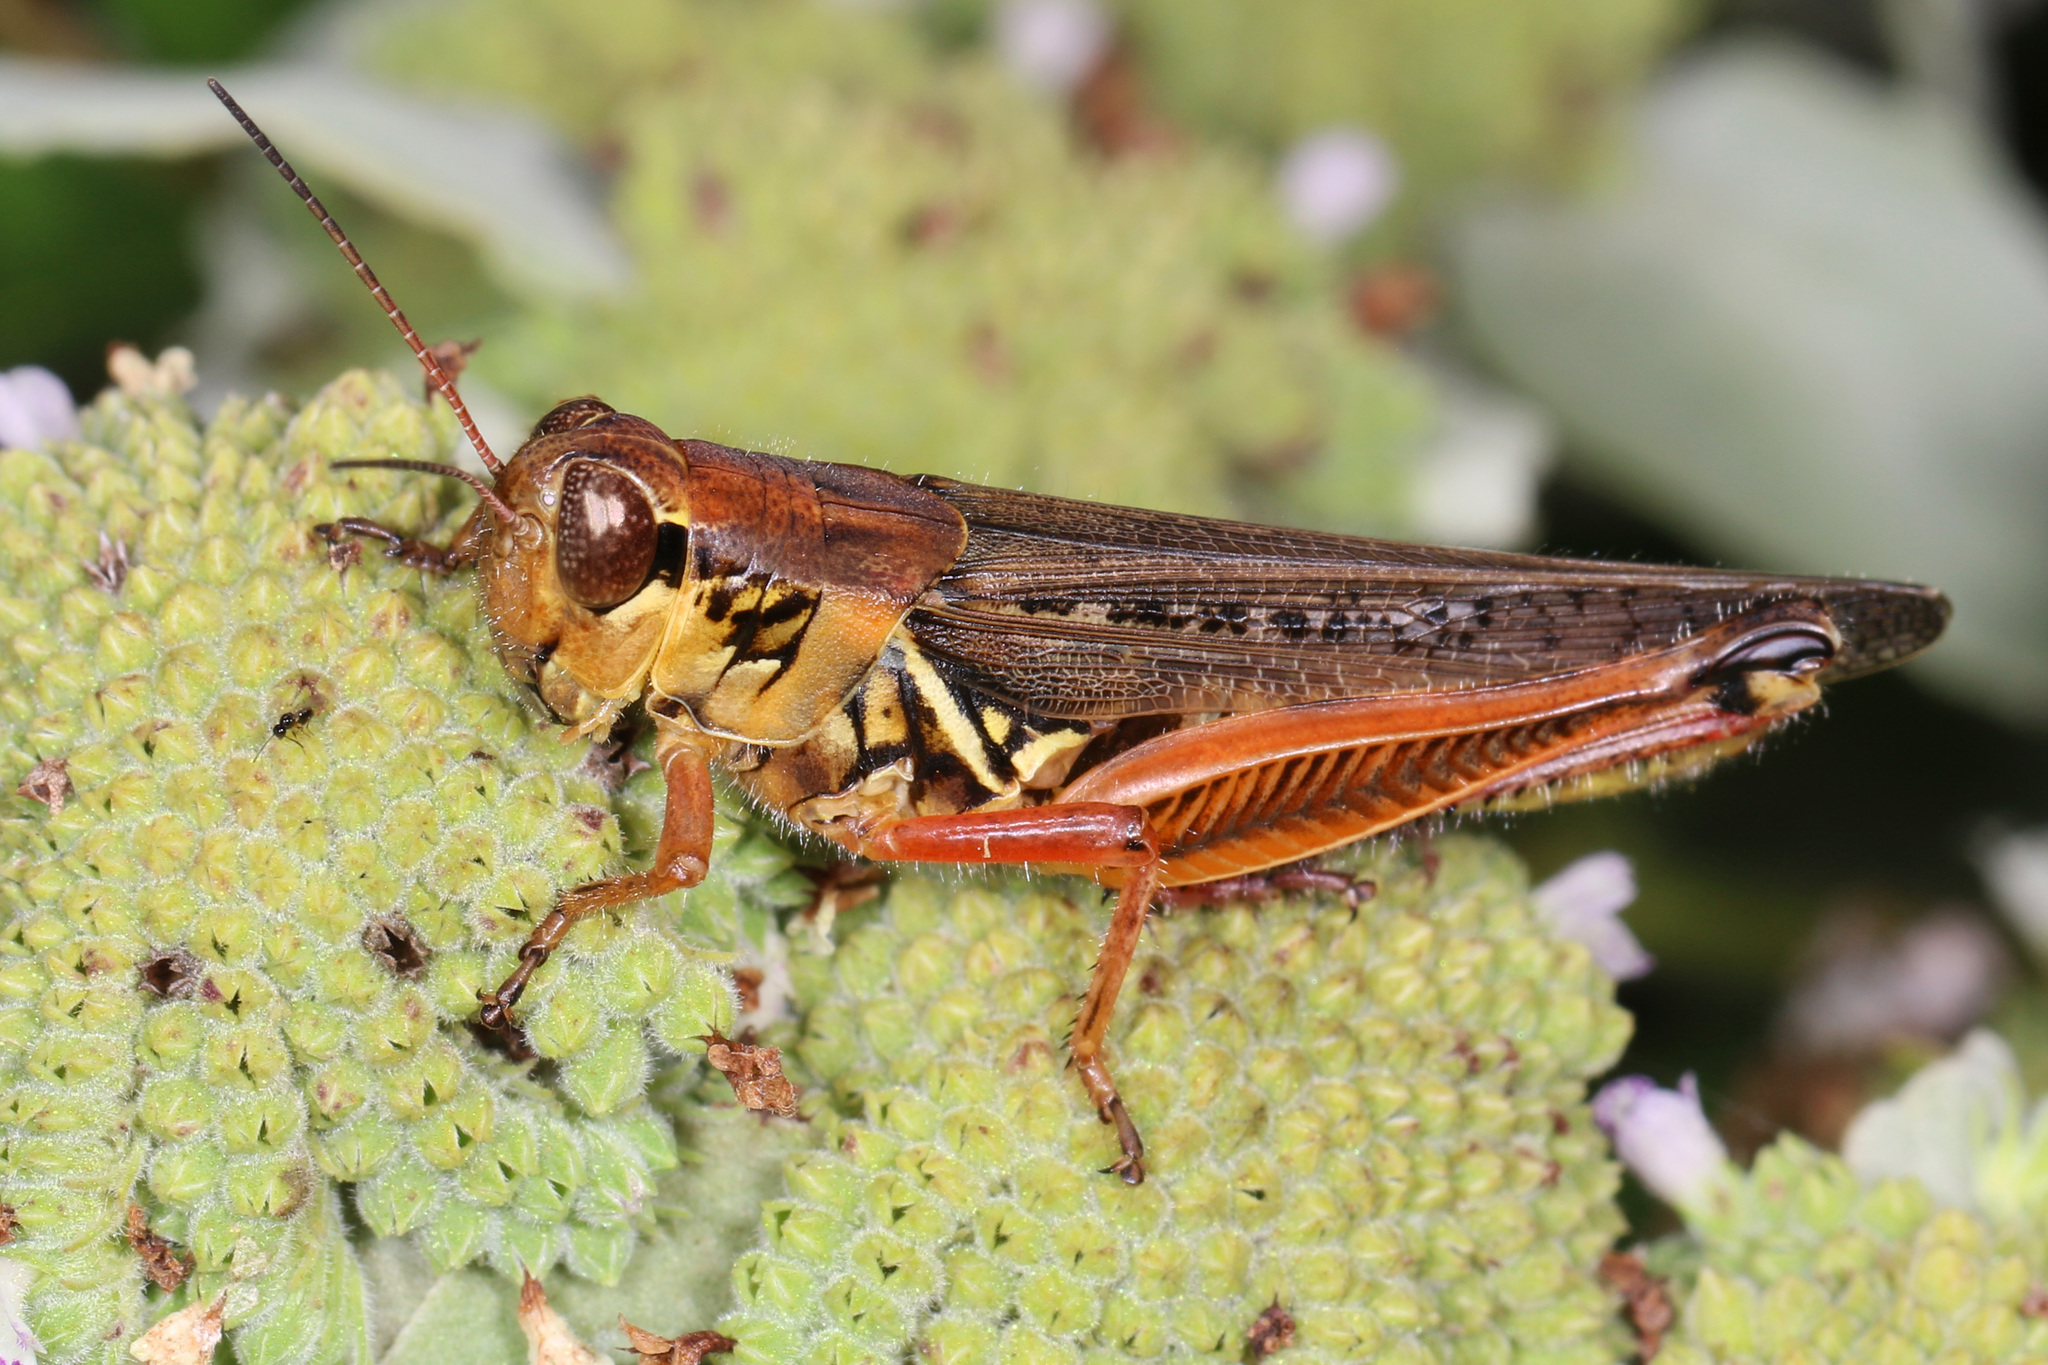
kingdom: Animalia
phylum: Arthropoda
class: Insecta
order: Orthoptera
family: Acrididae
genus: Melanoplus
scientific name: Melanoplus femurrubrum
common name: Red-legged grasshopper
